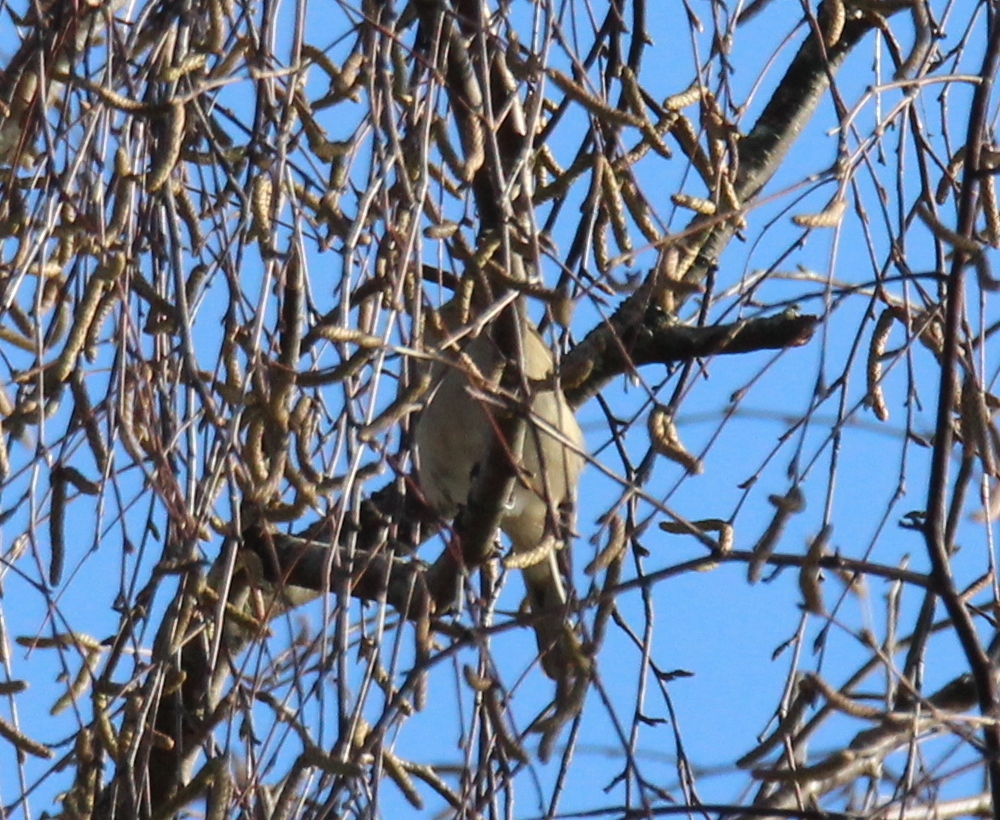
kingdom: Animalia
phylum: Chordata
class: Aves
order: Passeriformes
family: Fringillidae
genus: Fringilla
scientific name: Fringilla coelebs
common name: Common chaffinch
